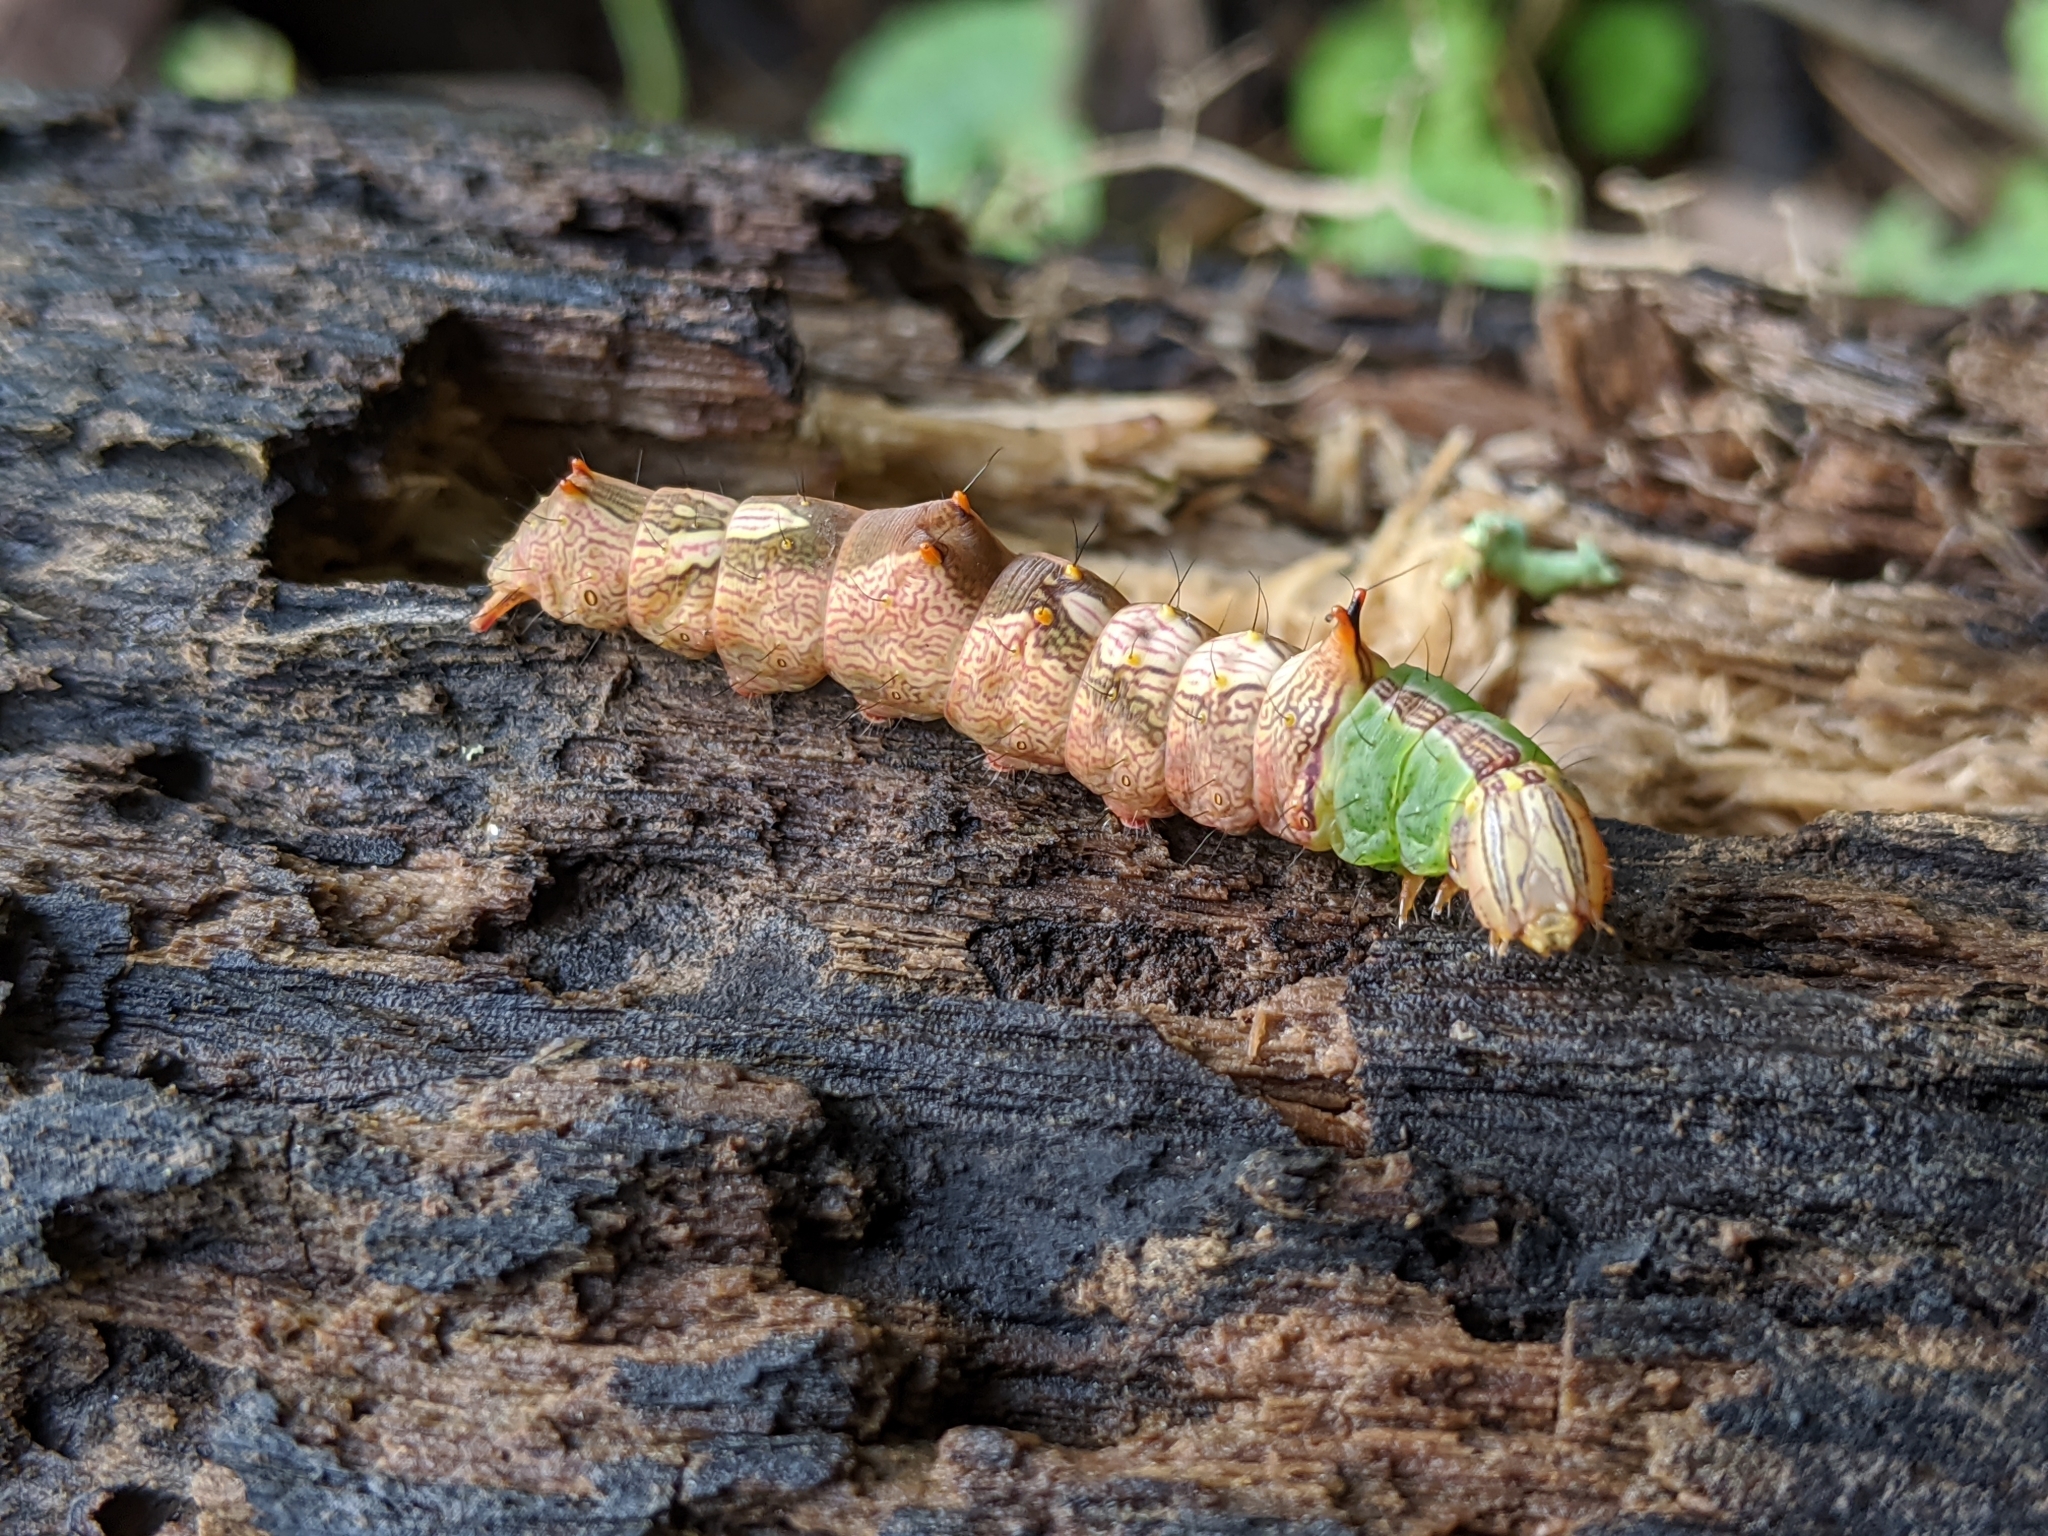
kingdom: Animalia
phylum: Arthropoda
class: Insecta
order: Lepidoptera
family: Notodontidae
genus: Schizura
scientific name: Schizura ipomaeae
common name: Morning-glory prominent
